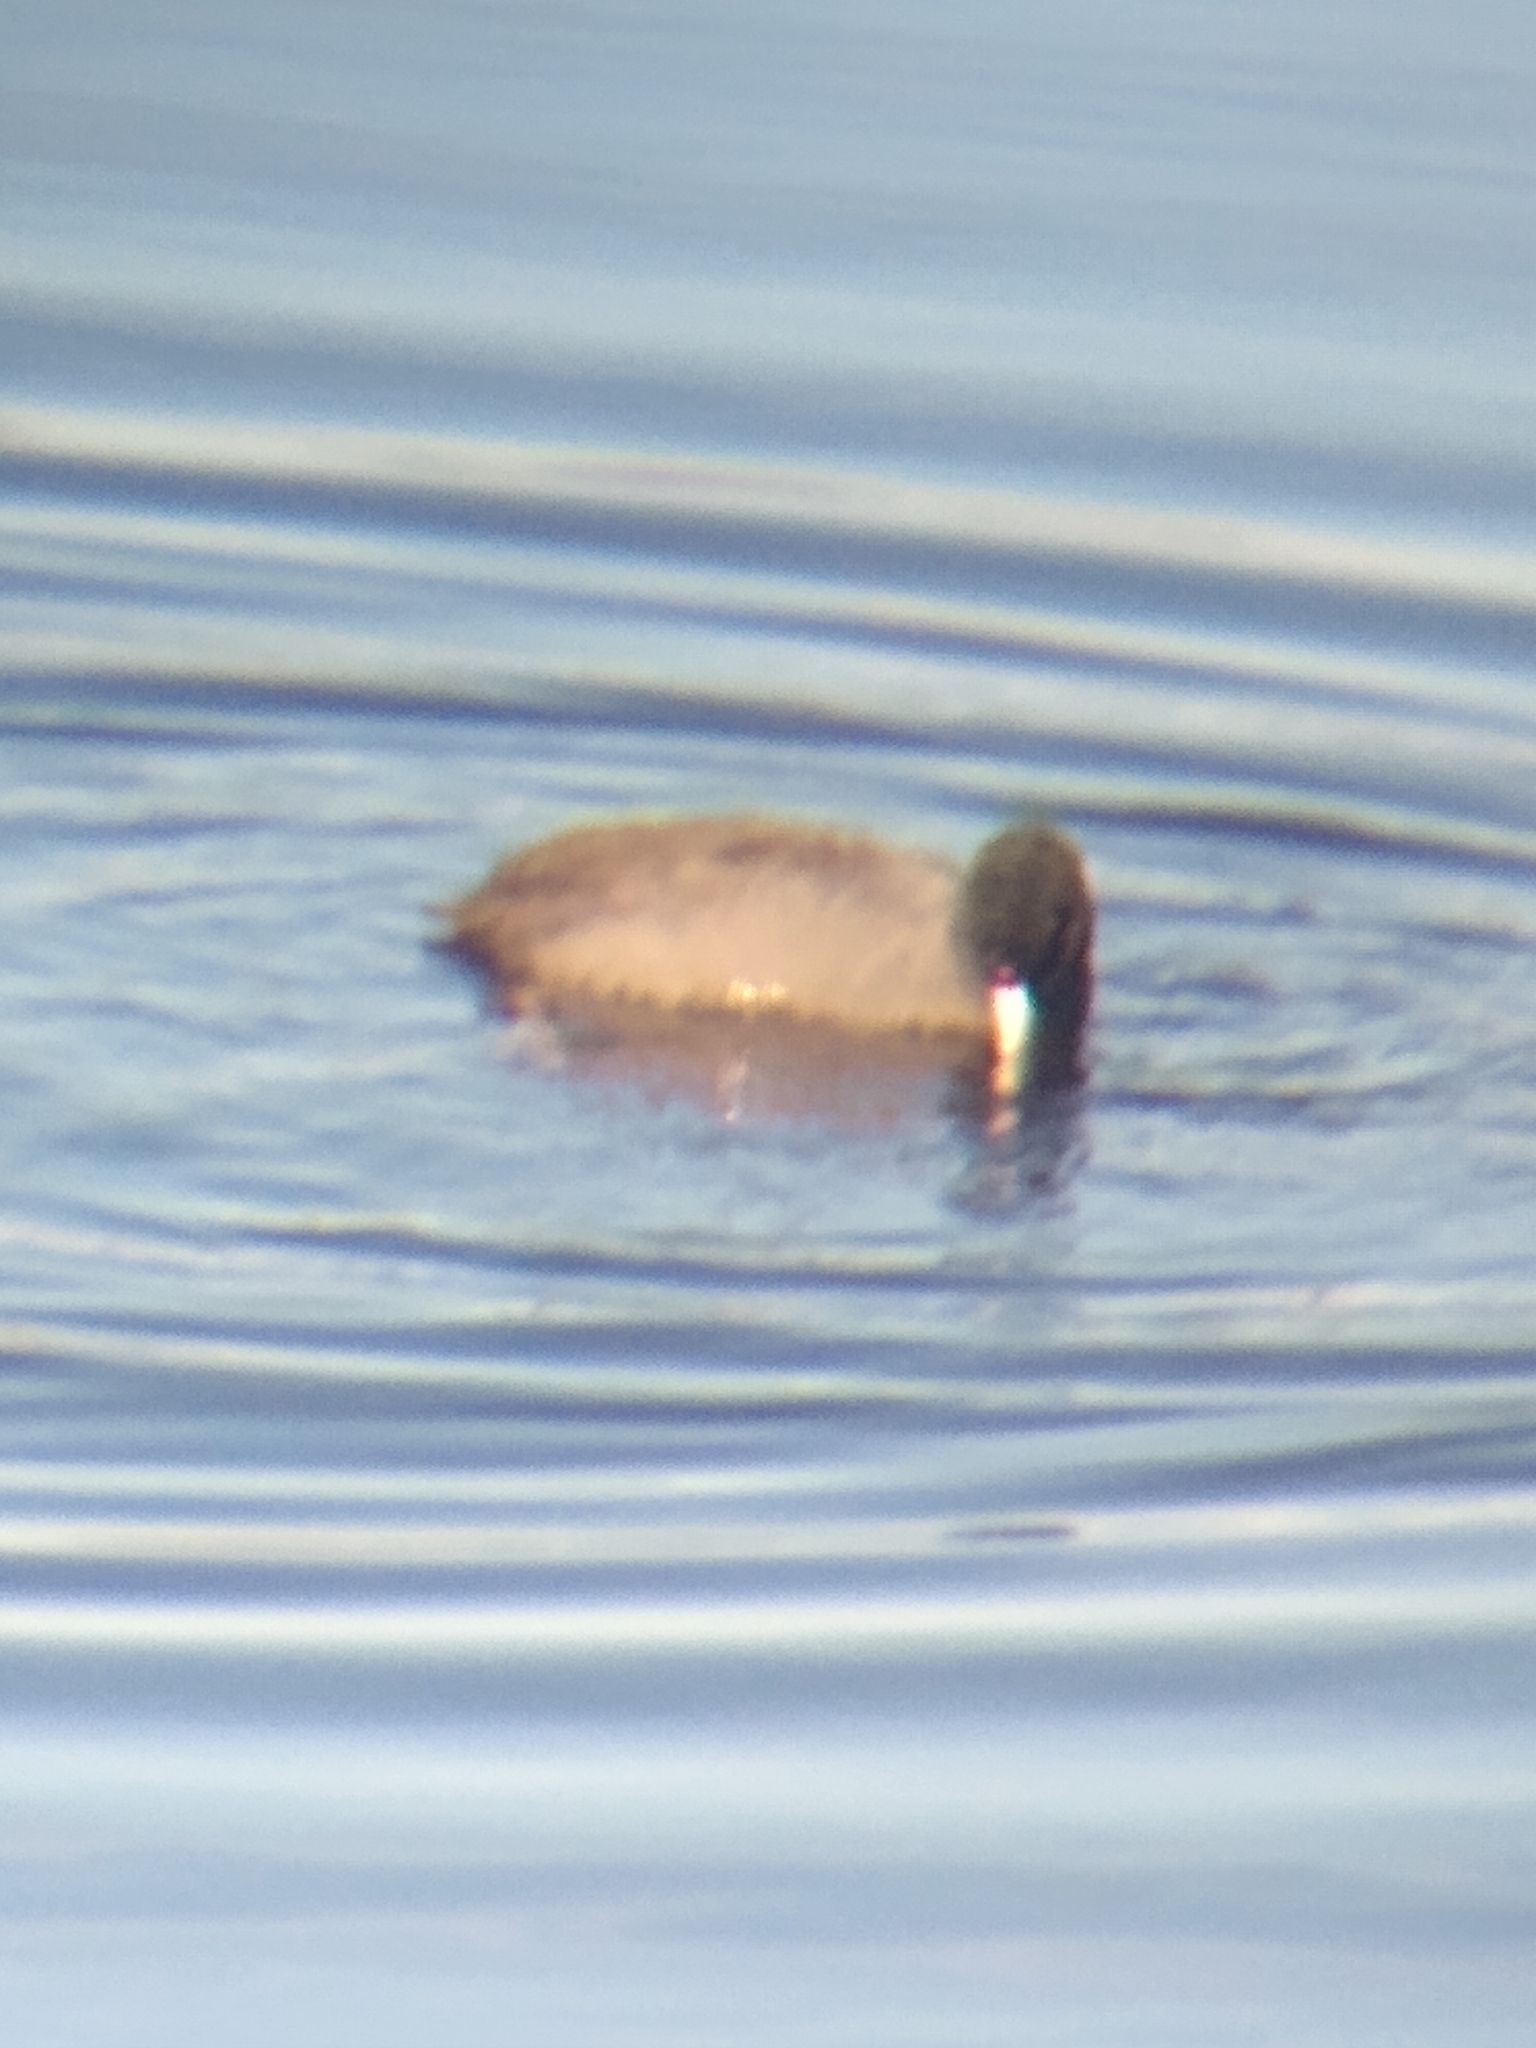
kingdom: Animalia
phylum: Chordata
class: Aves
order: Gruiformes
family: Rallidae
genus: Fulica
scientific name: Fulica americana
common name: American coot
